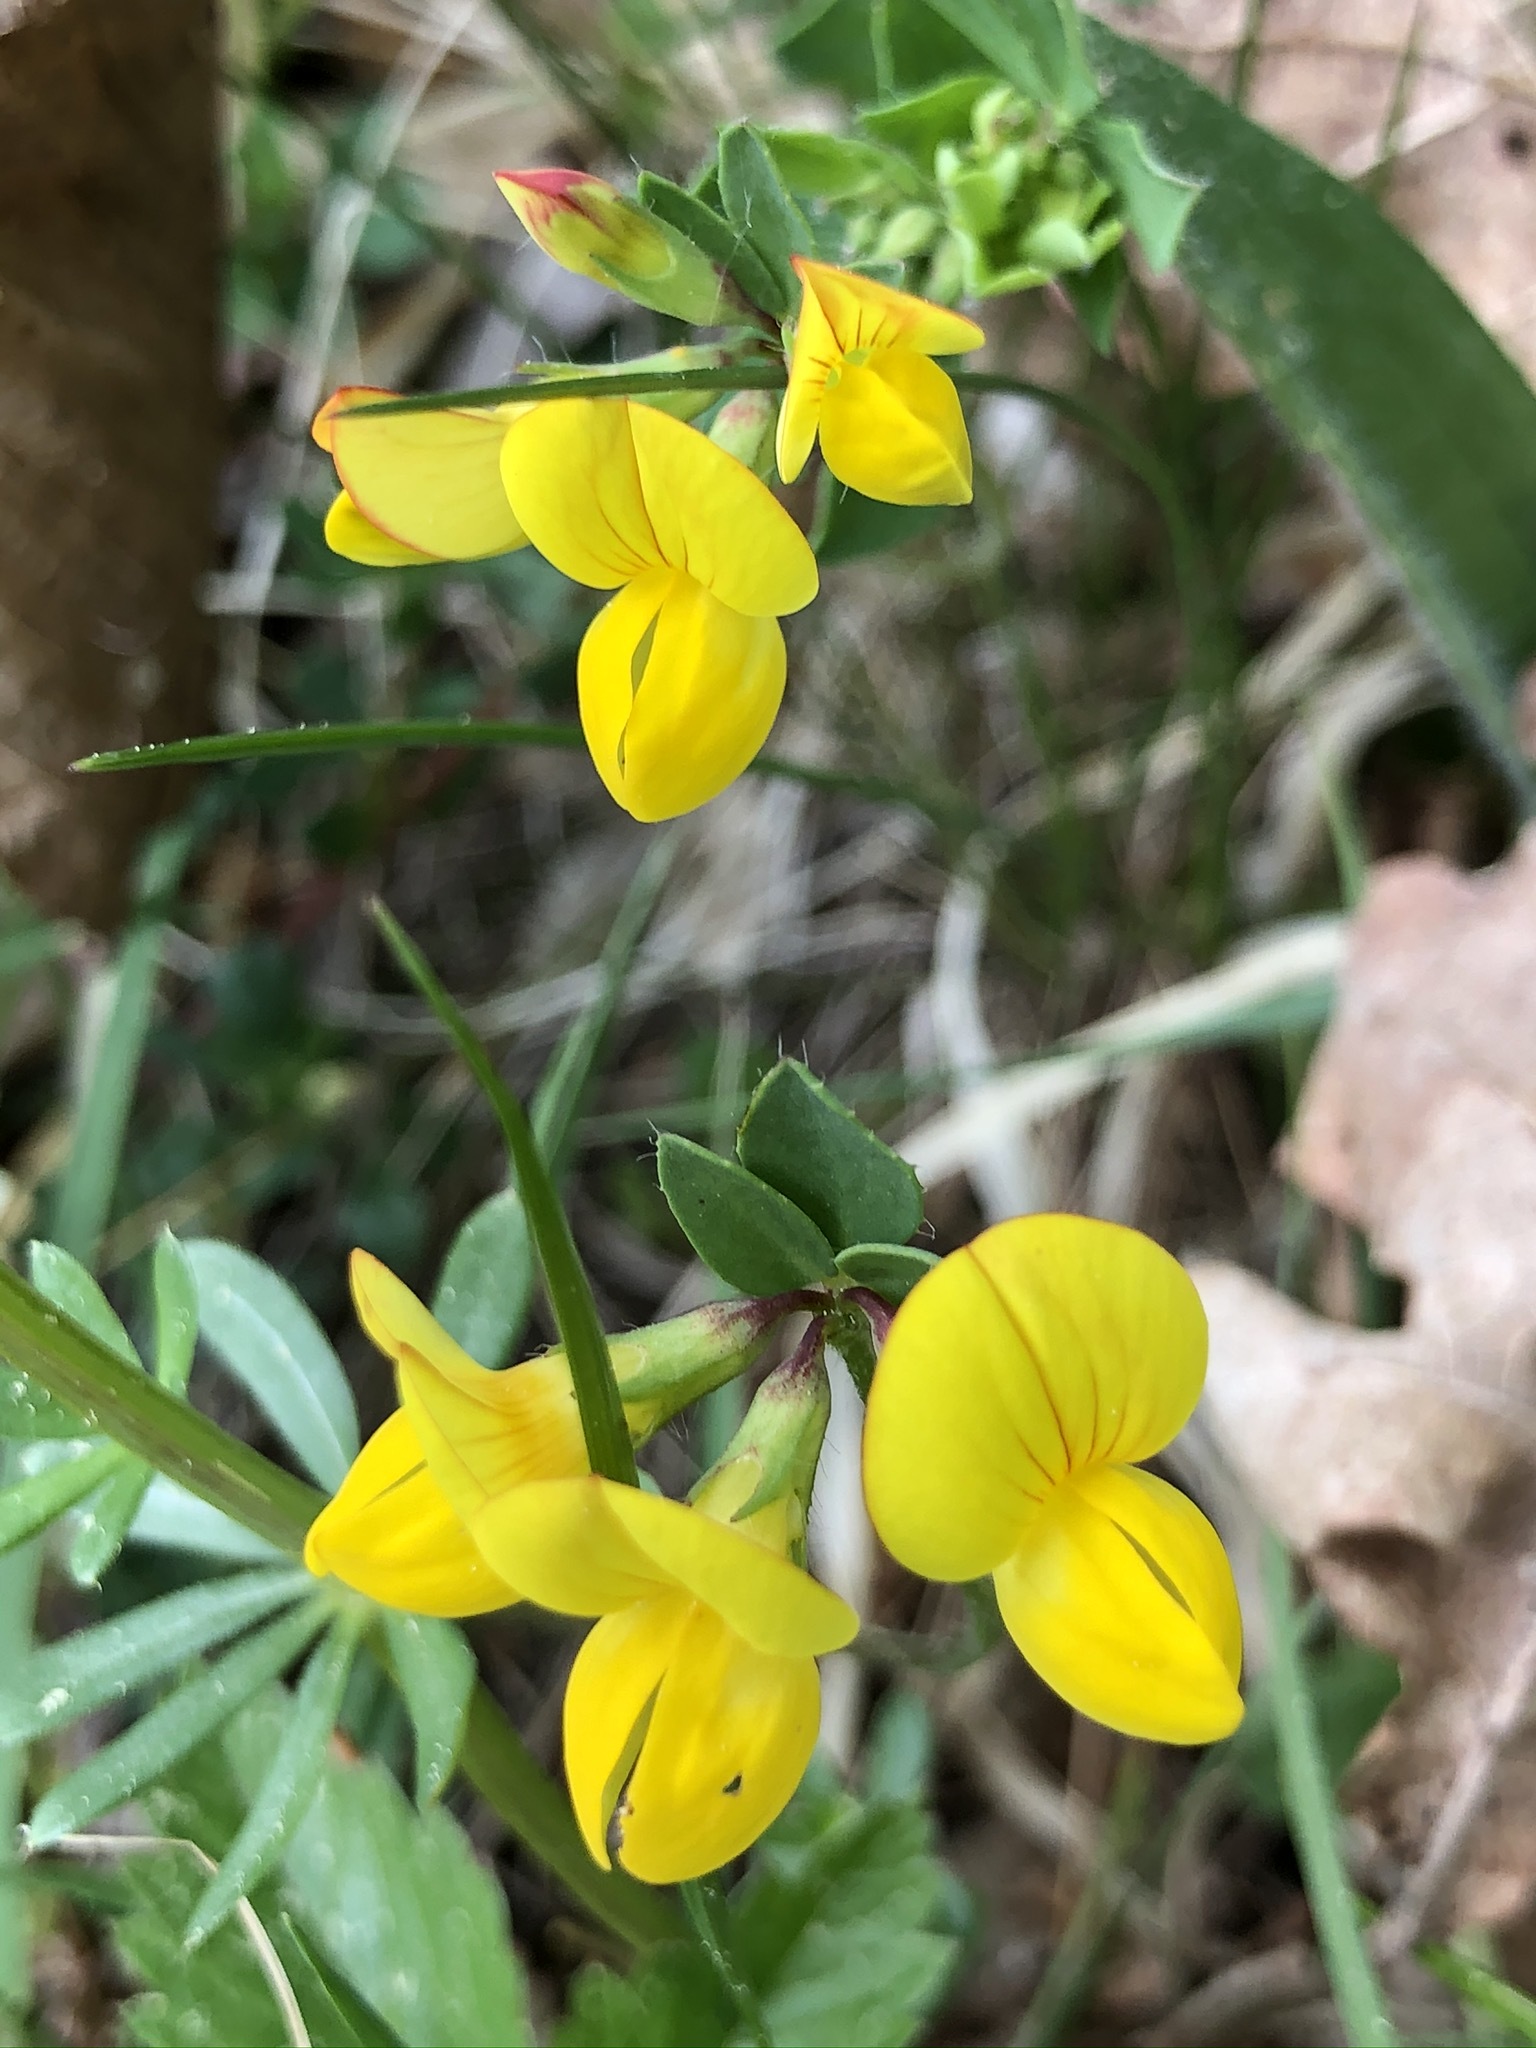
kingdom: Plantae
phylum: Tracheophyta
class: Magnoliopsida
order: Fabales
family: Fabaceae
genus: Lotus
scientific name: Lotus corniculatus
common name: Common bird's-foot-trefoil
